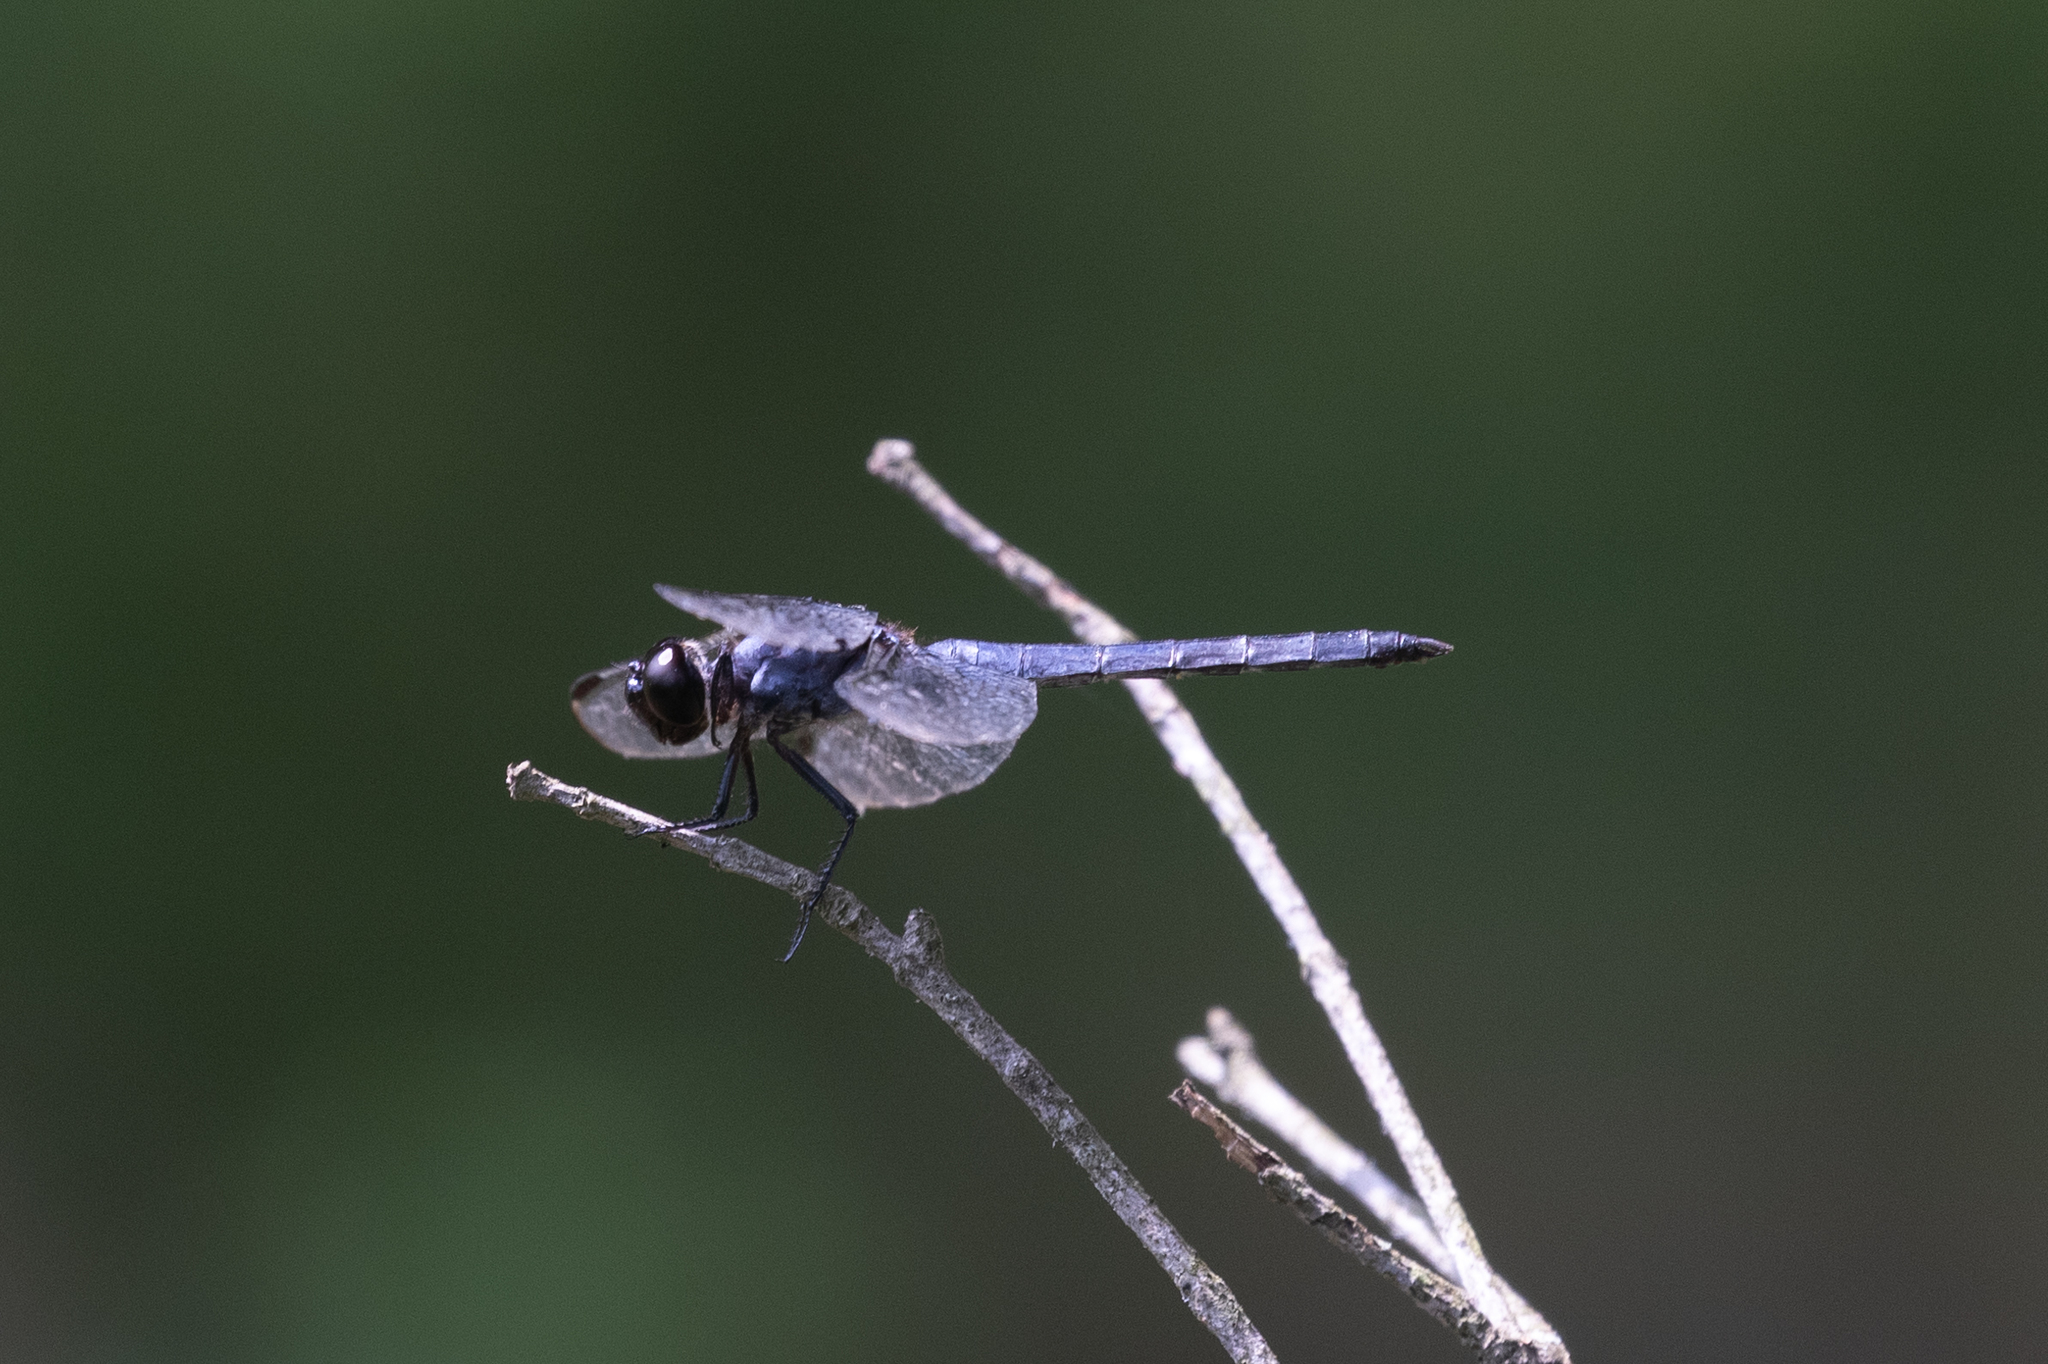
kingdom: Animalia
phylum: Arthropoda
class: Insecta
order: Odonata
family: Libellulidae
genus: Libellula
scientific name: Libellula incesta
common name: Slaty skimmer
